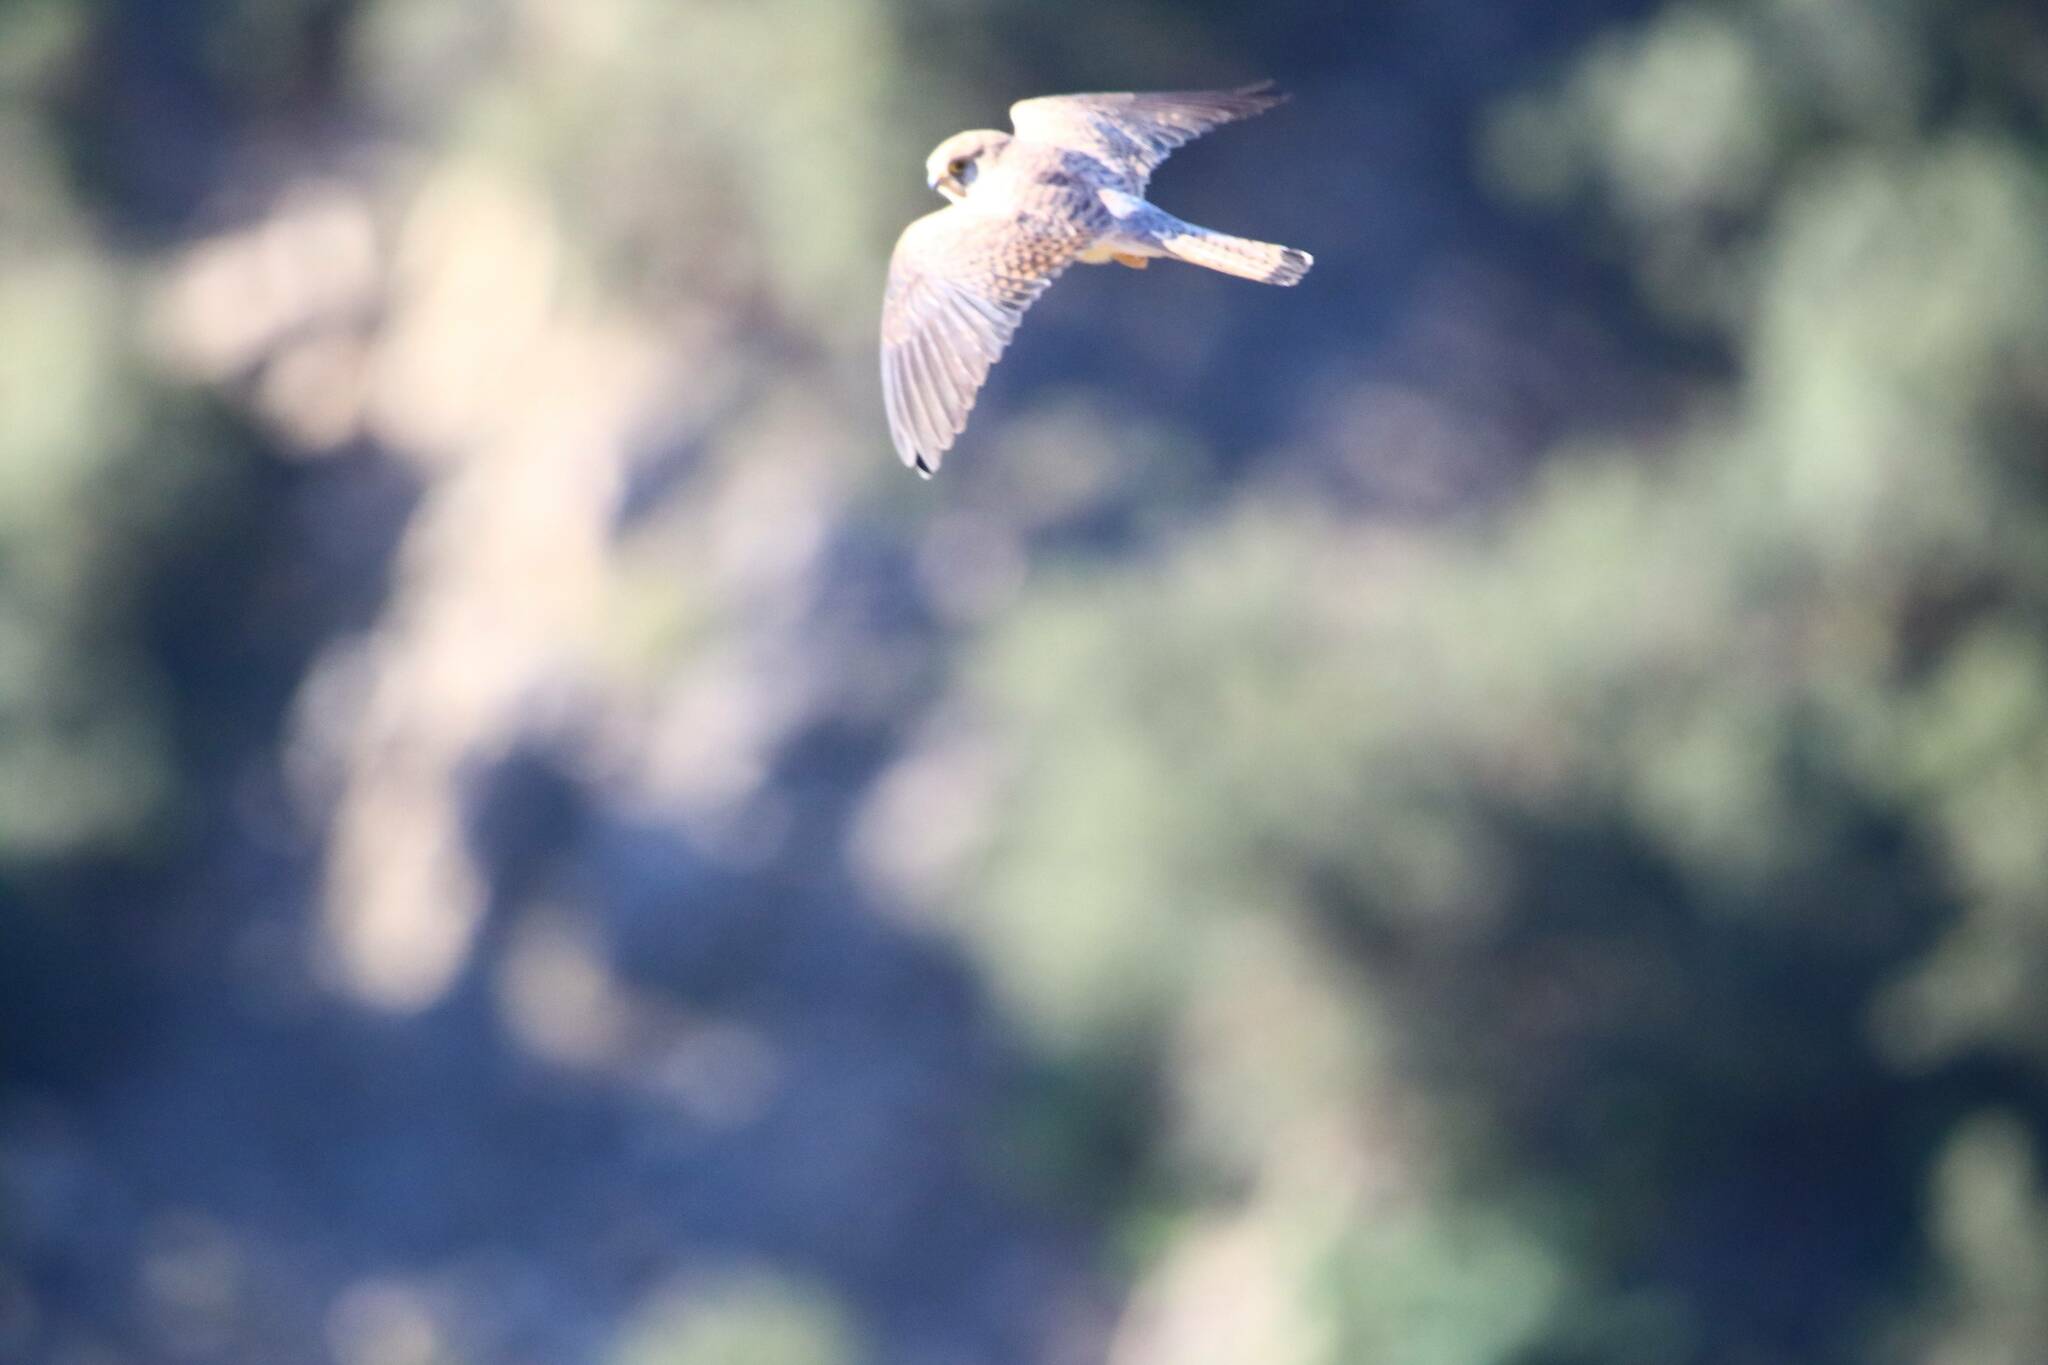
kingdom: Animalia
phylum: Chordata
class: Aves
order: Falconiformes
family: Falconidae
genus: Falco
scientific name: Falco naumanni
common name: Lesser kestrel
